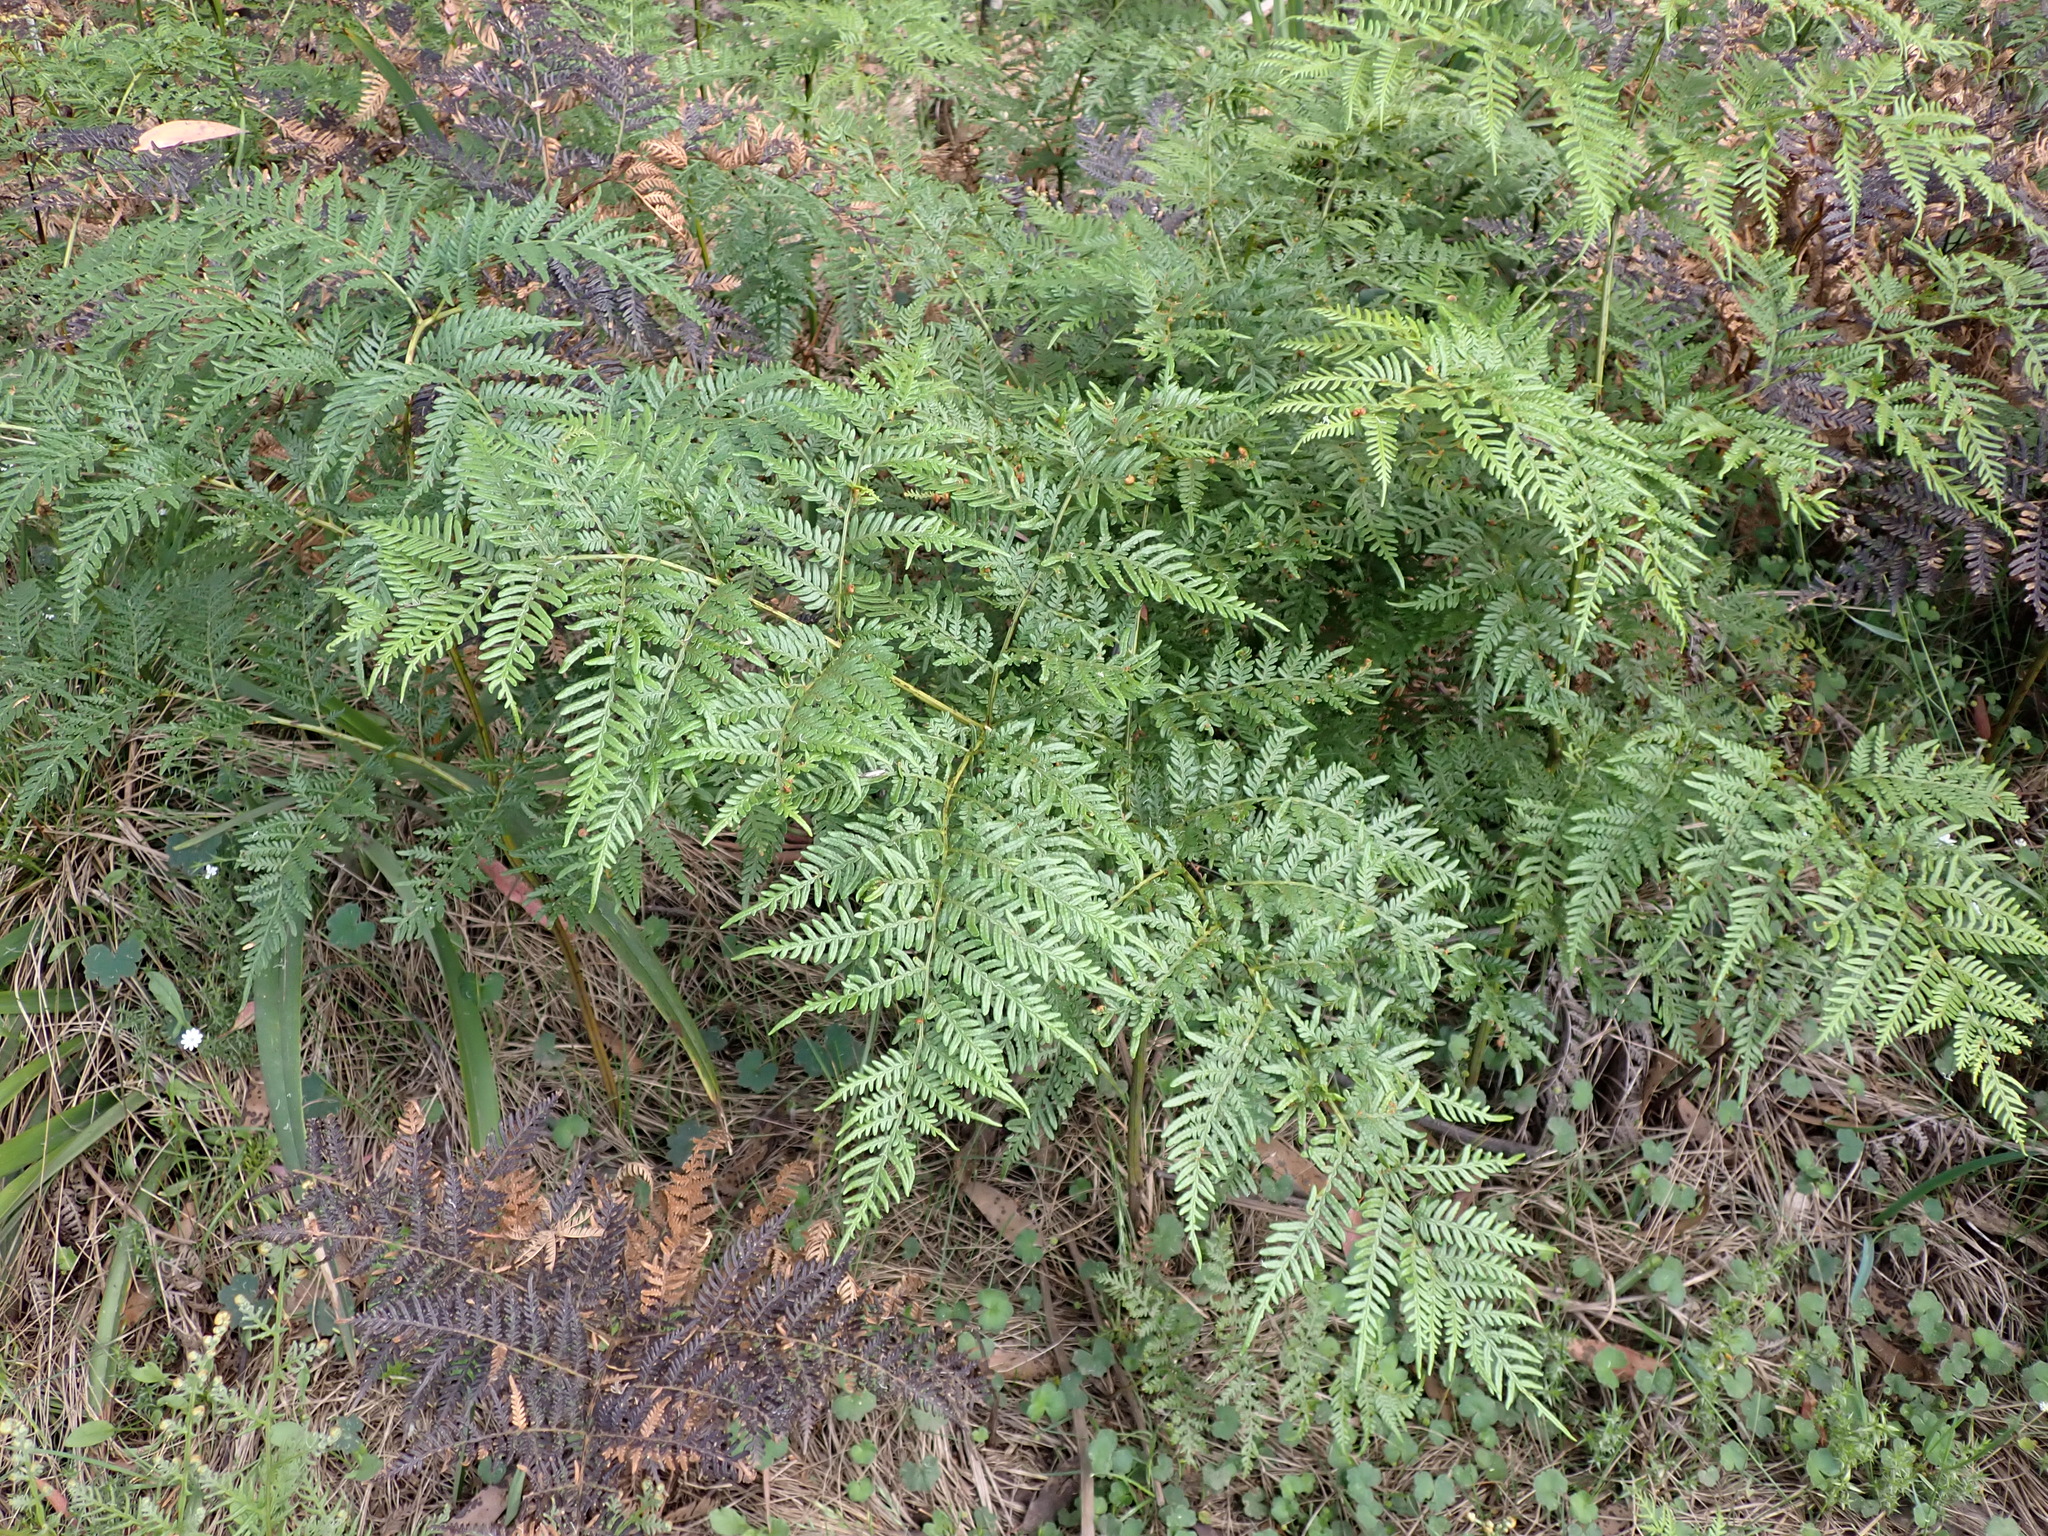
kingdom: Plantae
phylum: Tracheophyta
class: Polypodiopsida
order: Polypodiales
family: Dennstaedtiaceae
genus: Pteridium
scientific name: Pteridium esculentum
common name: Bracken fern
